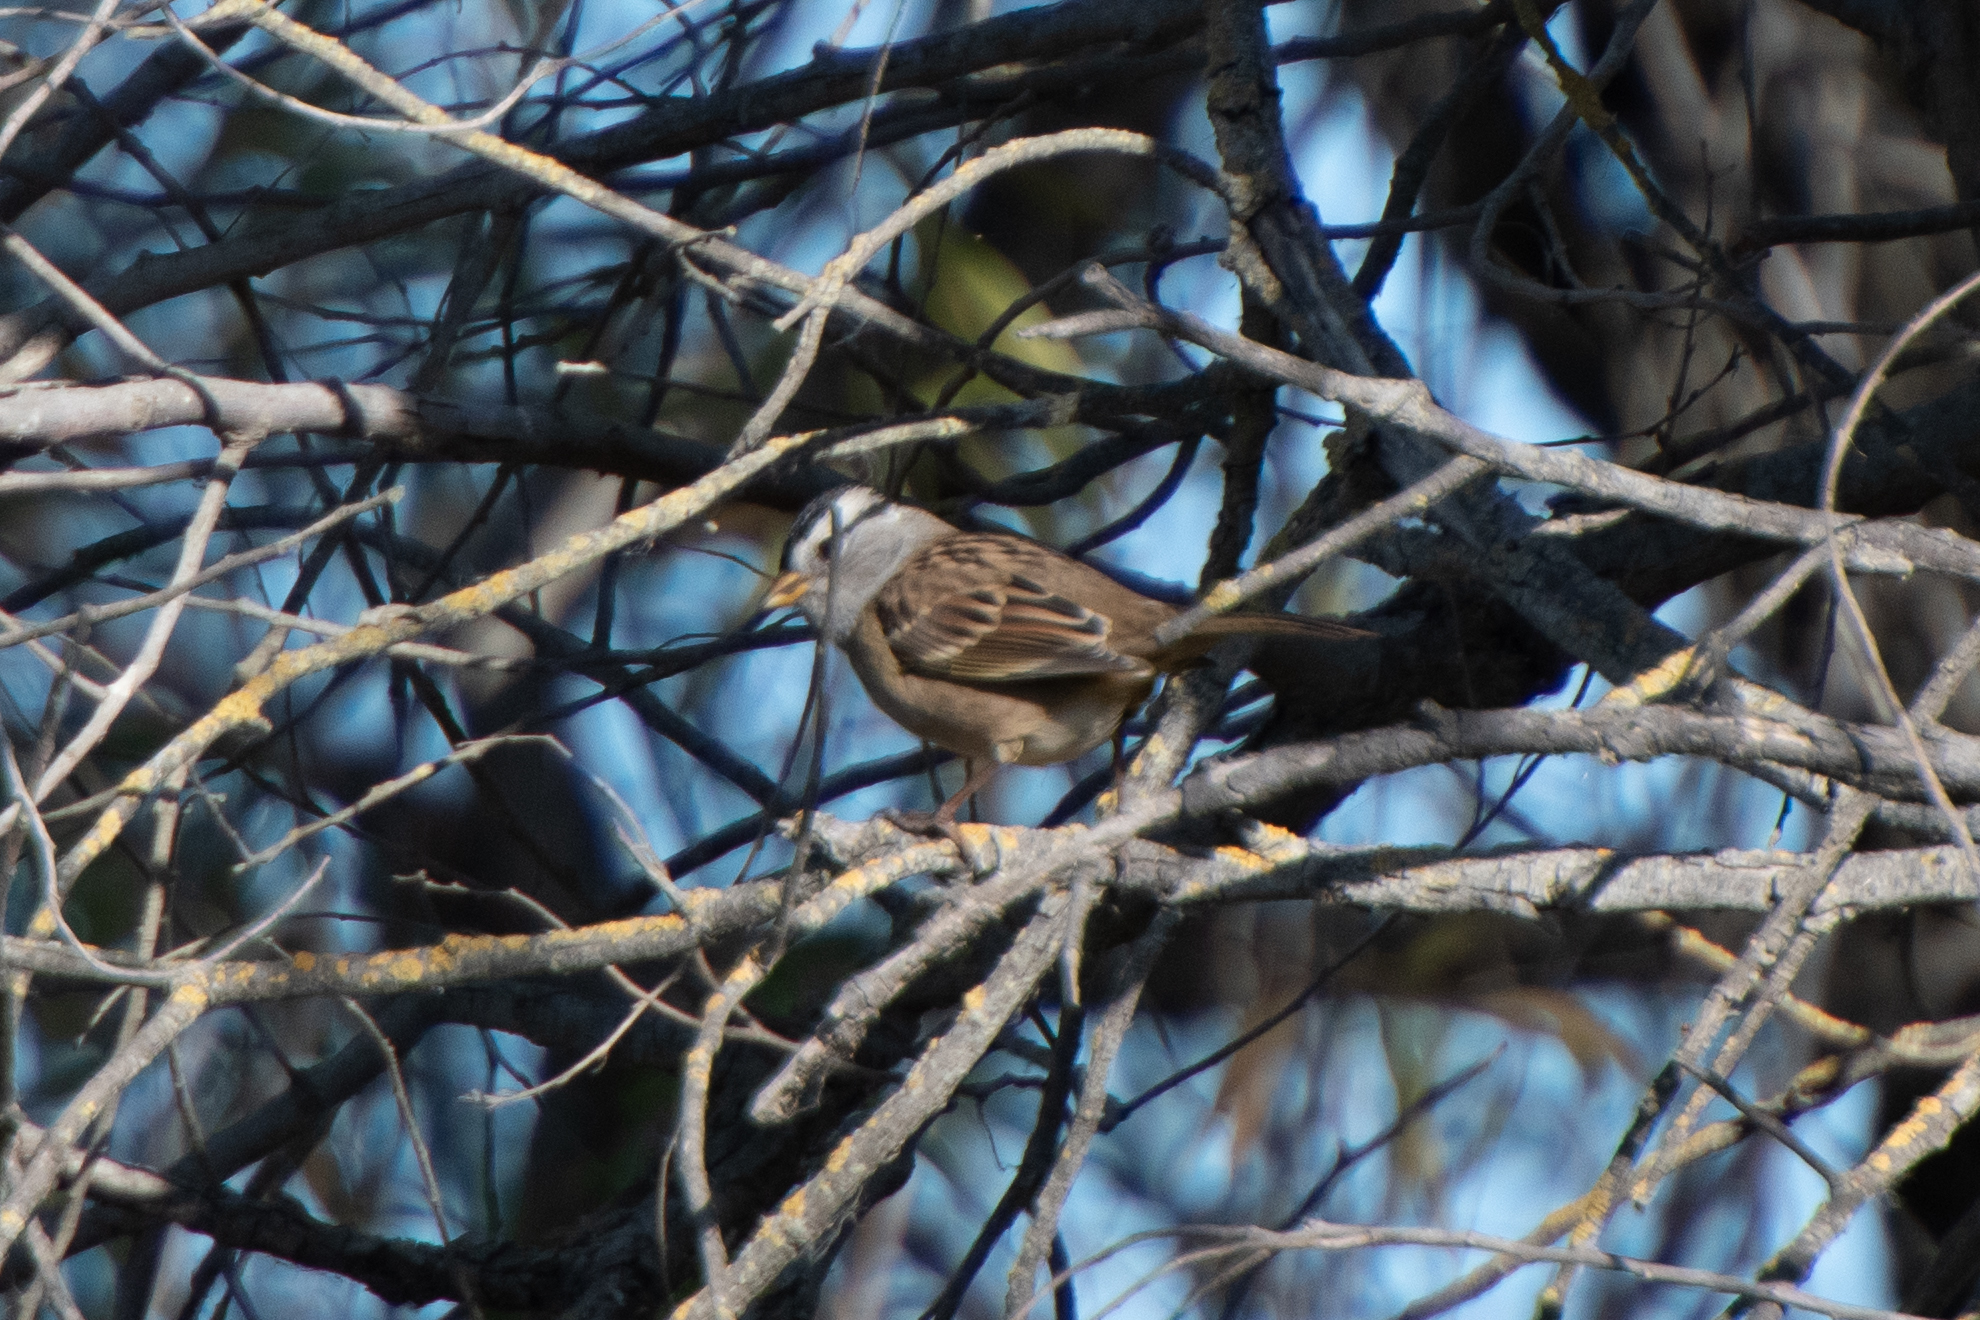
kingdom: Animalia
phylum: Chordata
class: Aves
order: Passeriformes
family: Passerellidae
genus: Zonotrichia
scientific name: Zonotrichia leucophrys
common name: White-crowned sparrow
